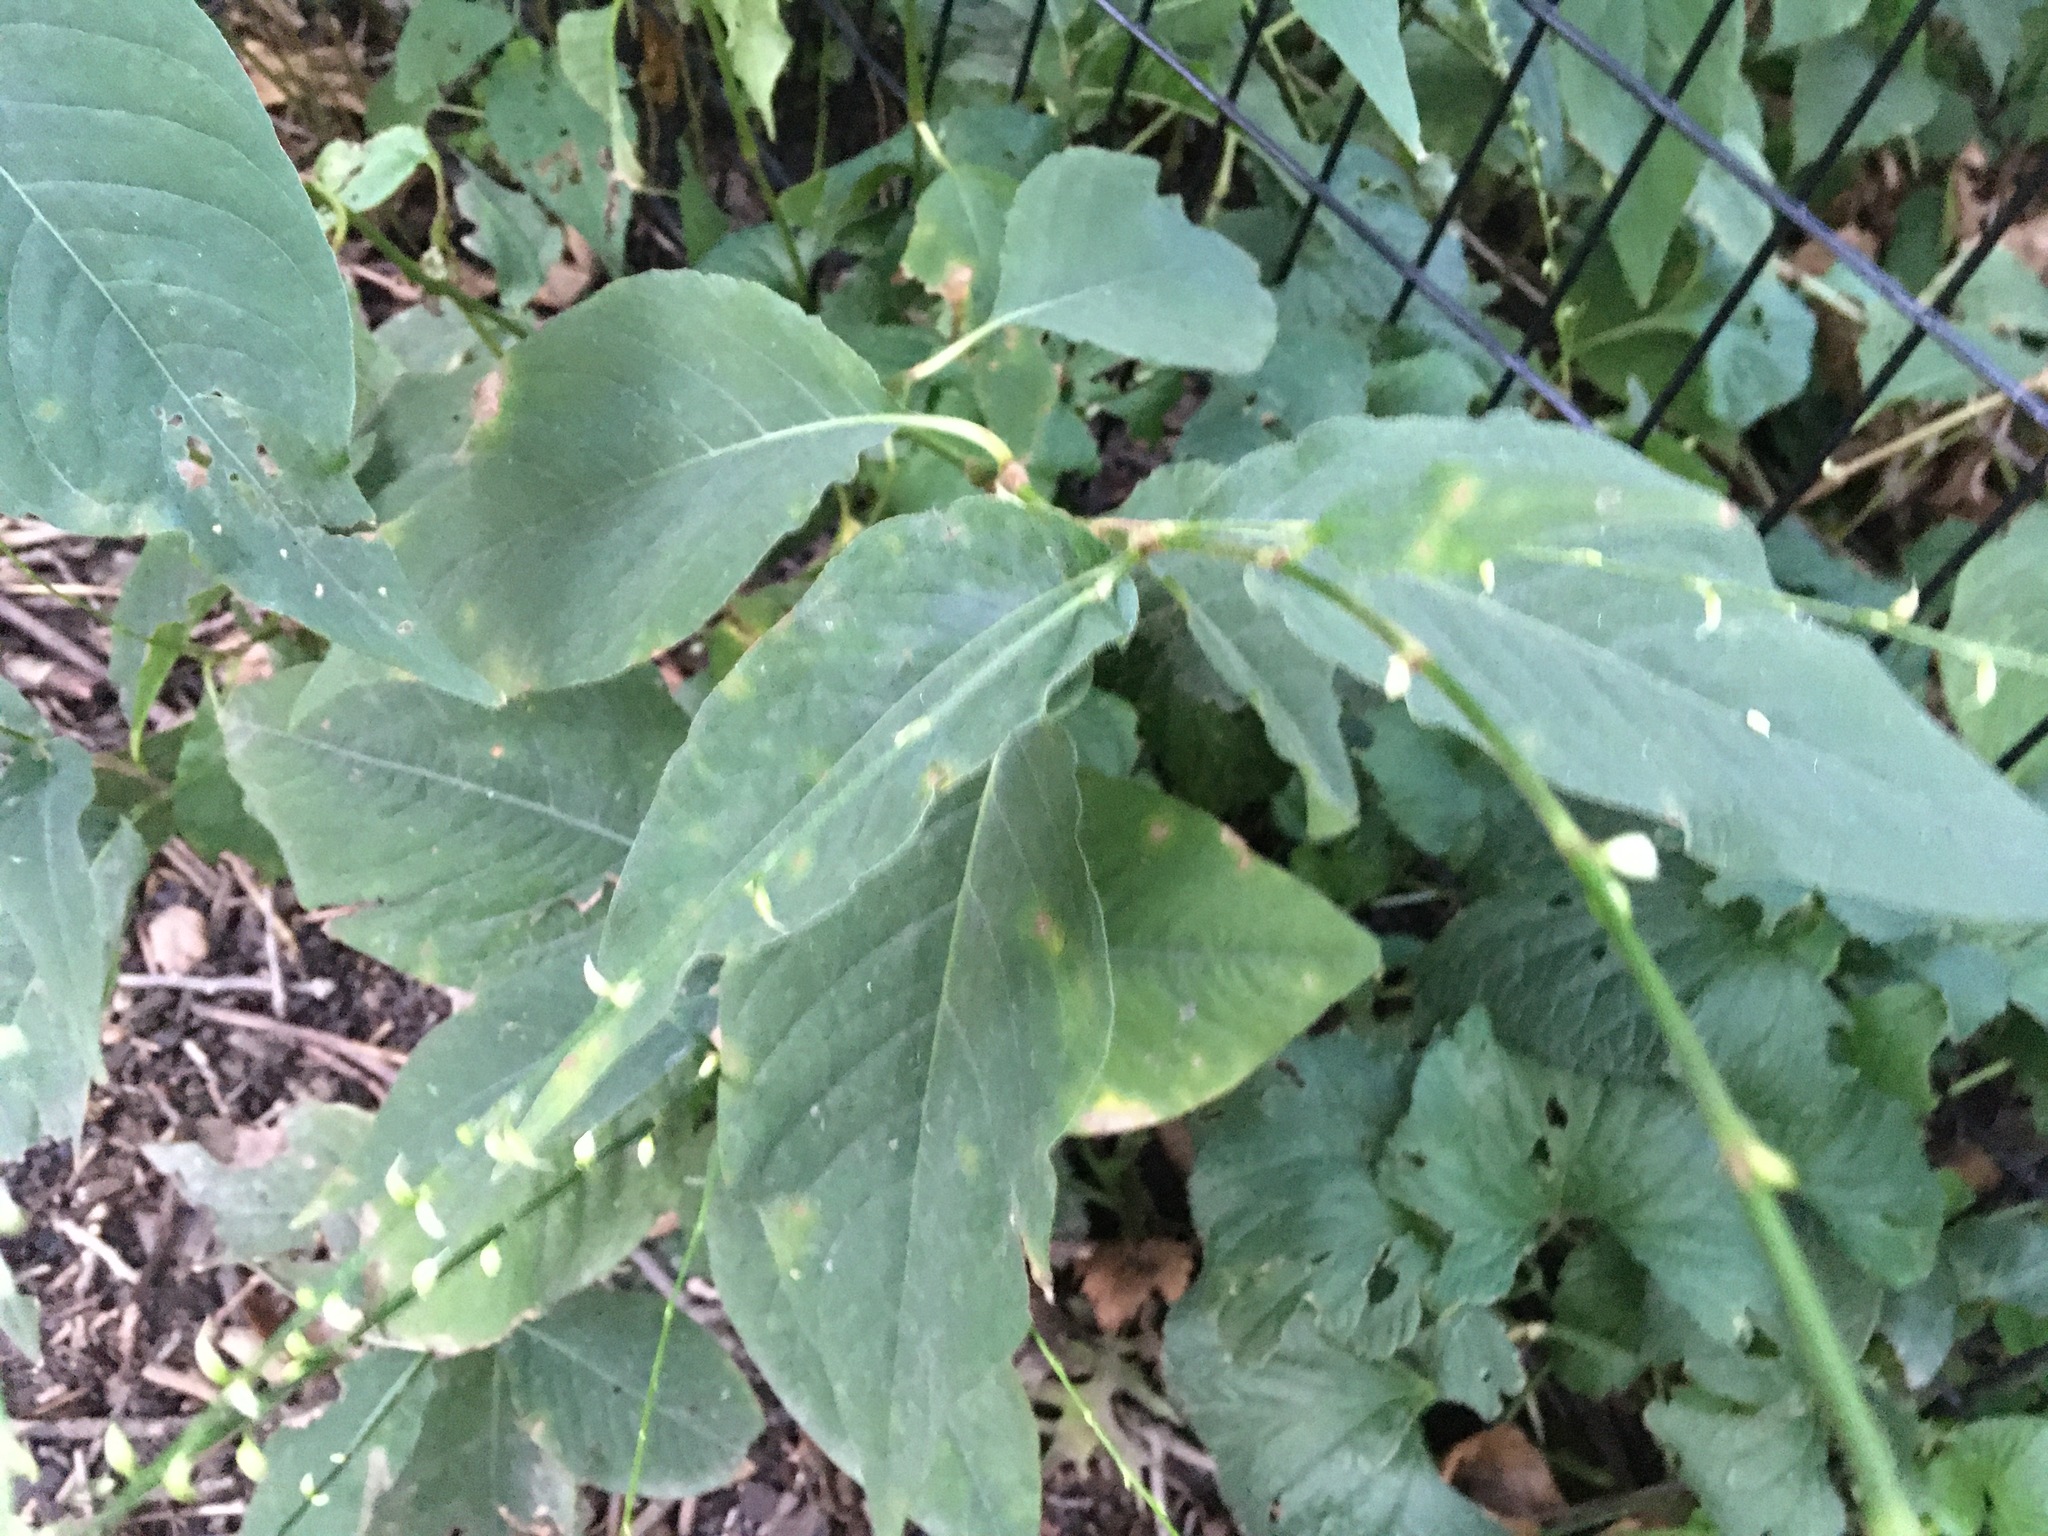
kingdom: Plantae
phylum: Tracheophyta
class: Magnoliopsida
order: Caryophyllales
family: Polygonaceae
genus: Persicaria
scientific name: Persicaria virginiana
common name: Jumpseed
